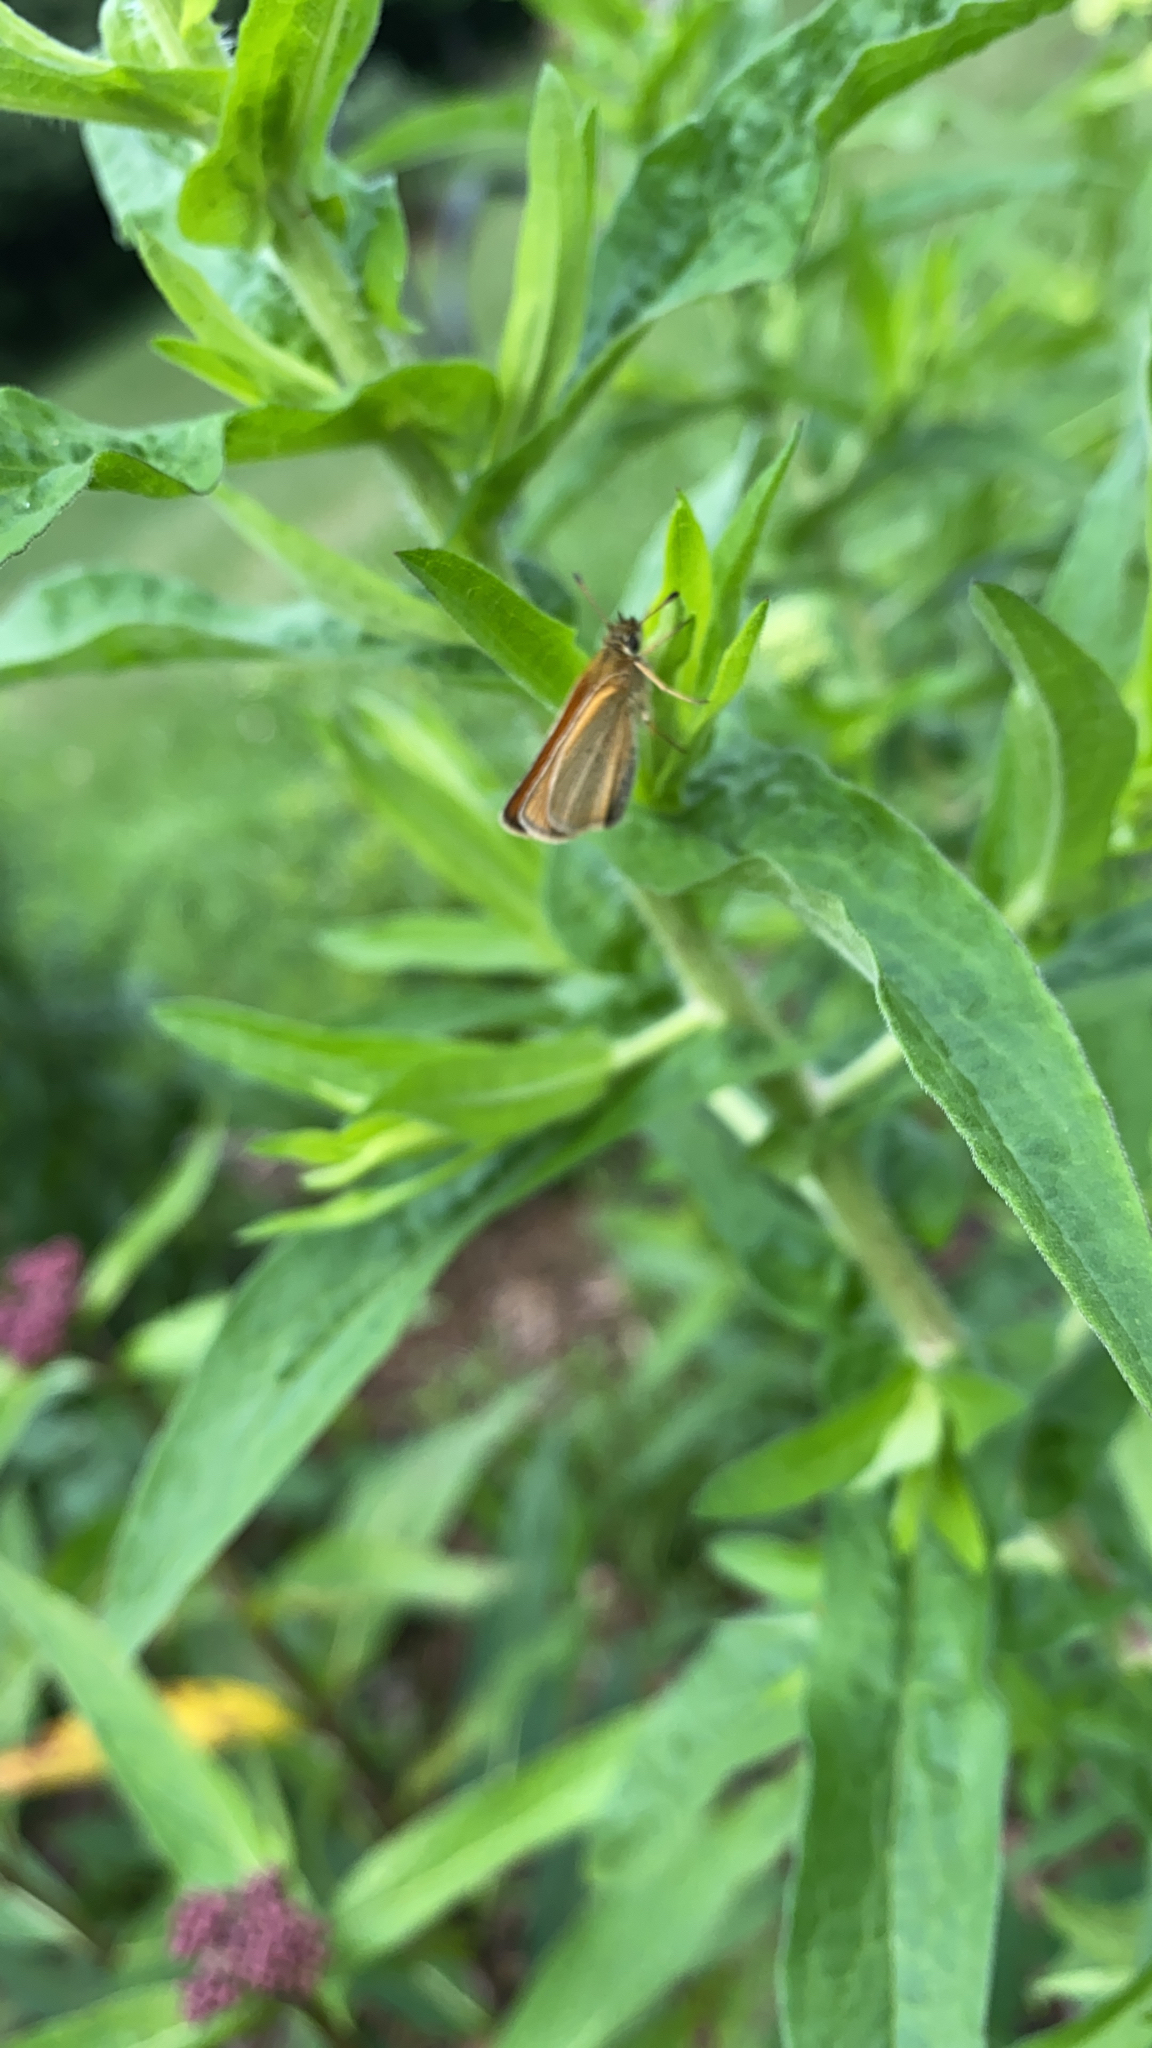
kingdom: Animalia
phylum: Arthropoda
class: Insecta
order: Lepidoptera
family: Hesperiidae
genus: Thymelicus
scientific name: Thymelicus lineola
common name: Essex skipper
